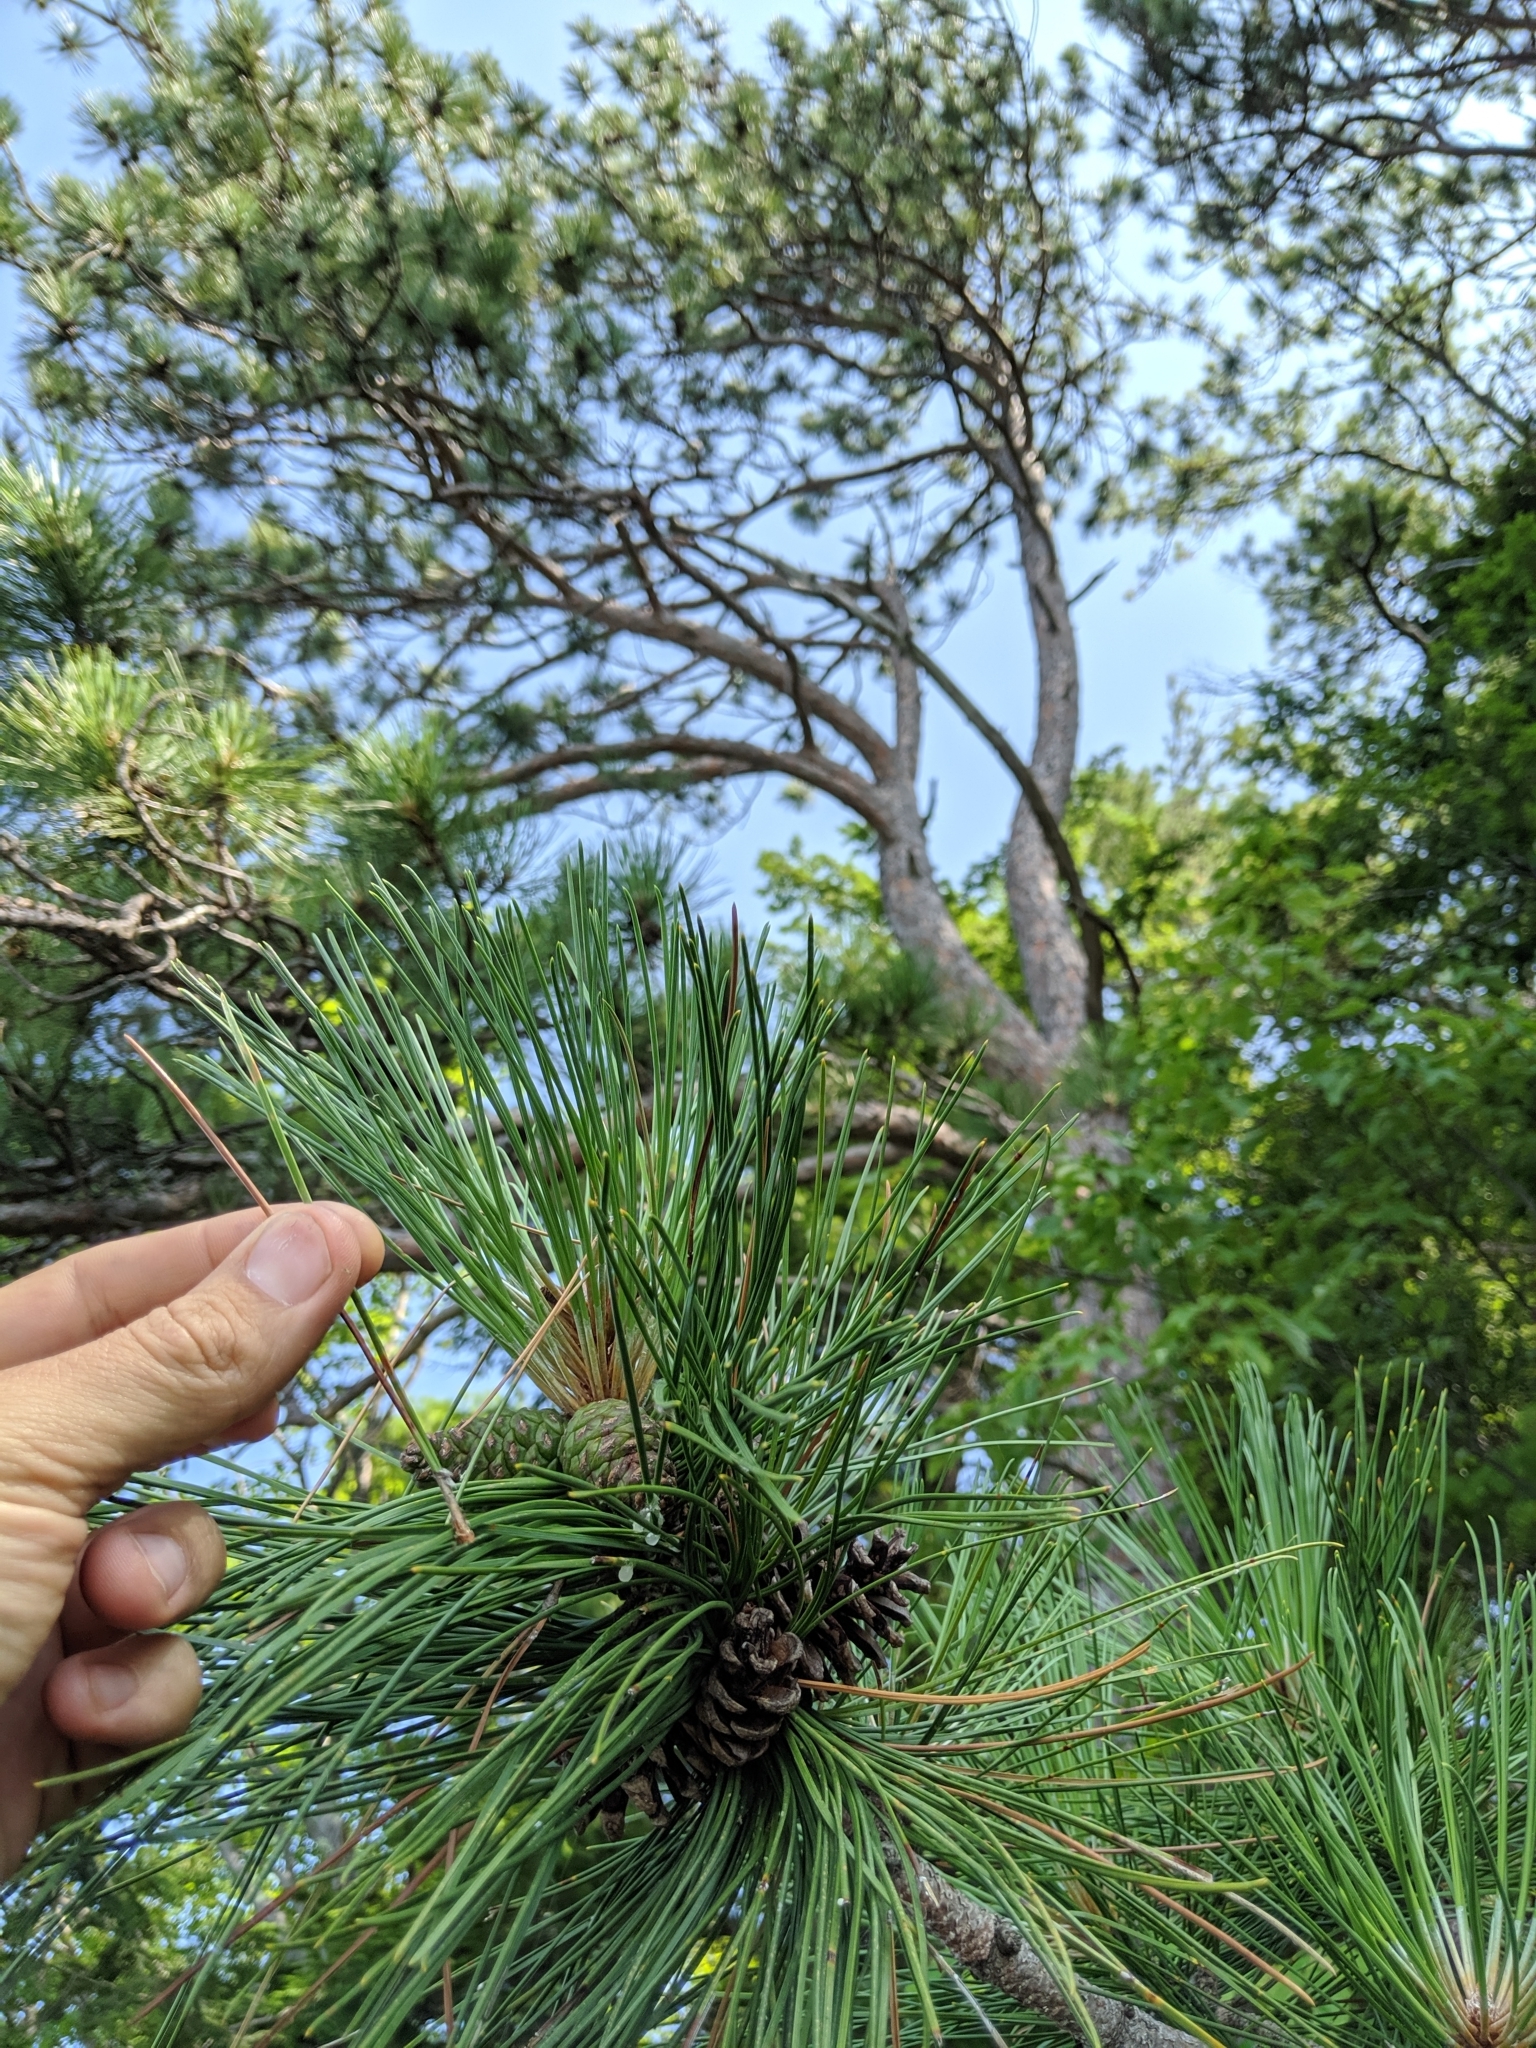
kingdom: Plantae
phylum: Tracheophyta
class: Pinopsida
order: Pinales
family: Pinaceae
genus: Pinus
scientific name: Pinus resinosa
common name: Norway pine
